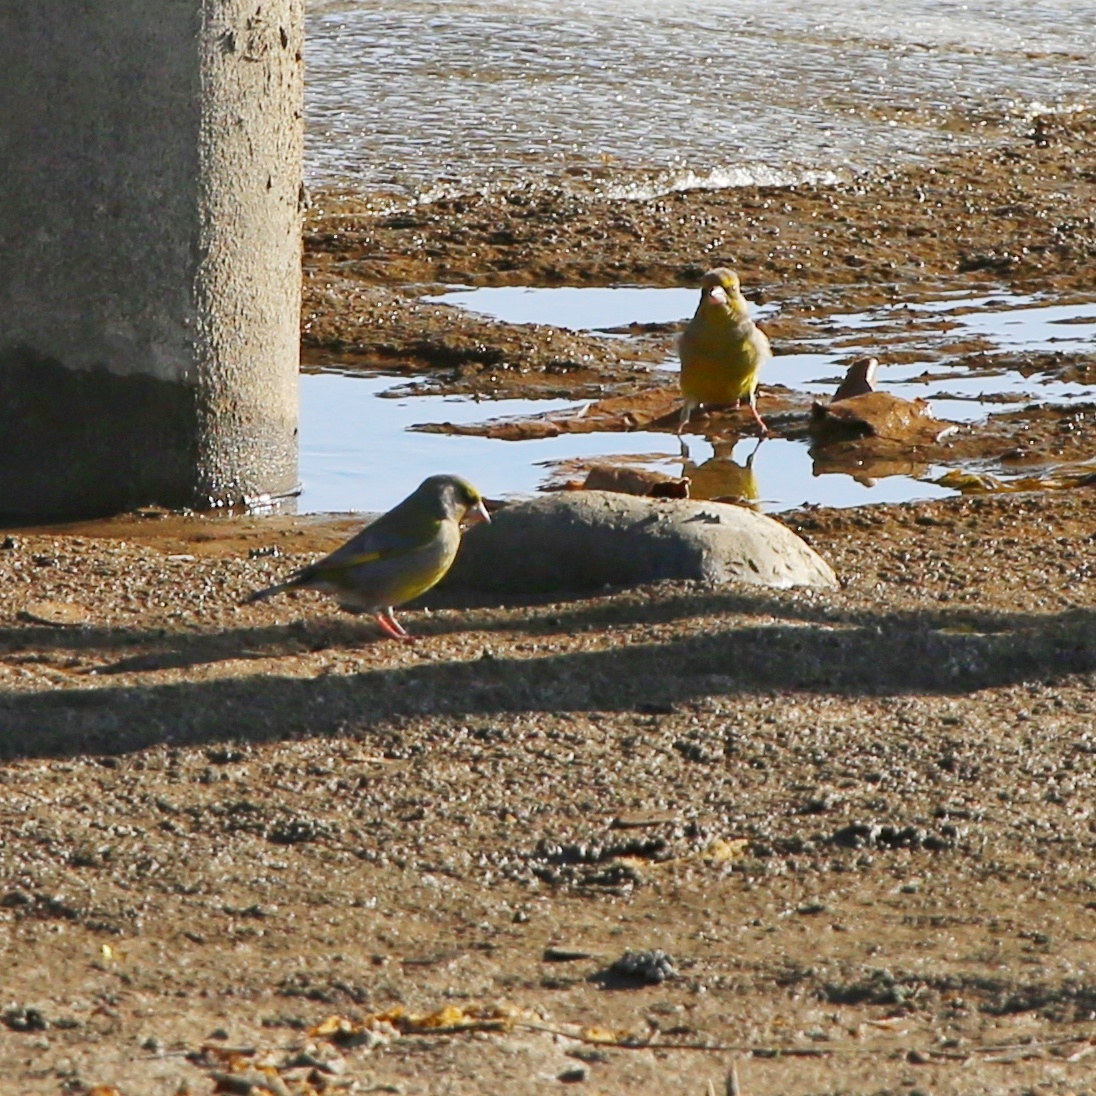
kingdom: Plantae
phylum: Tracheophyta
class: Liliopsida
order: Poales
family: Poaceae
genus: Chloris
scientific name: Chloris chloris
